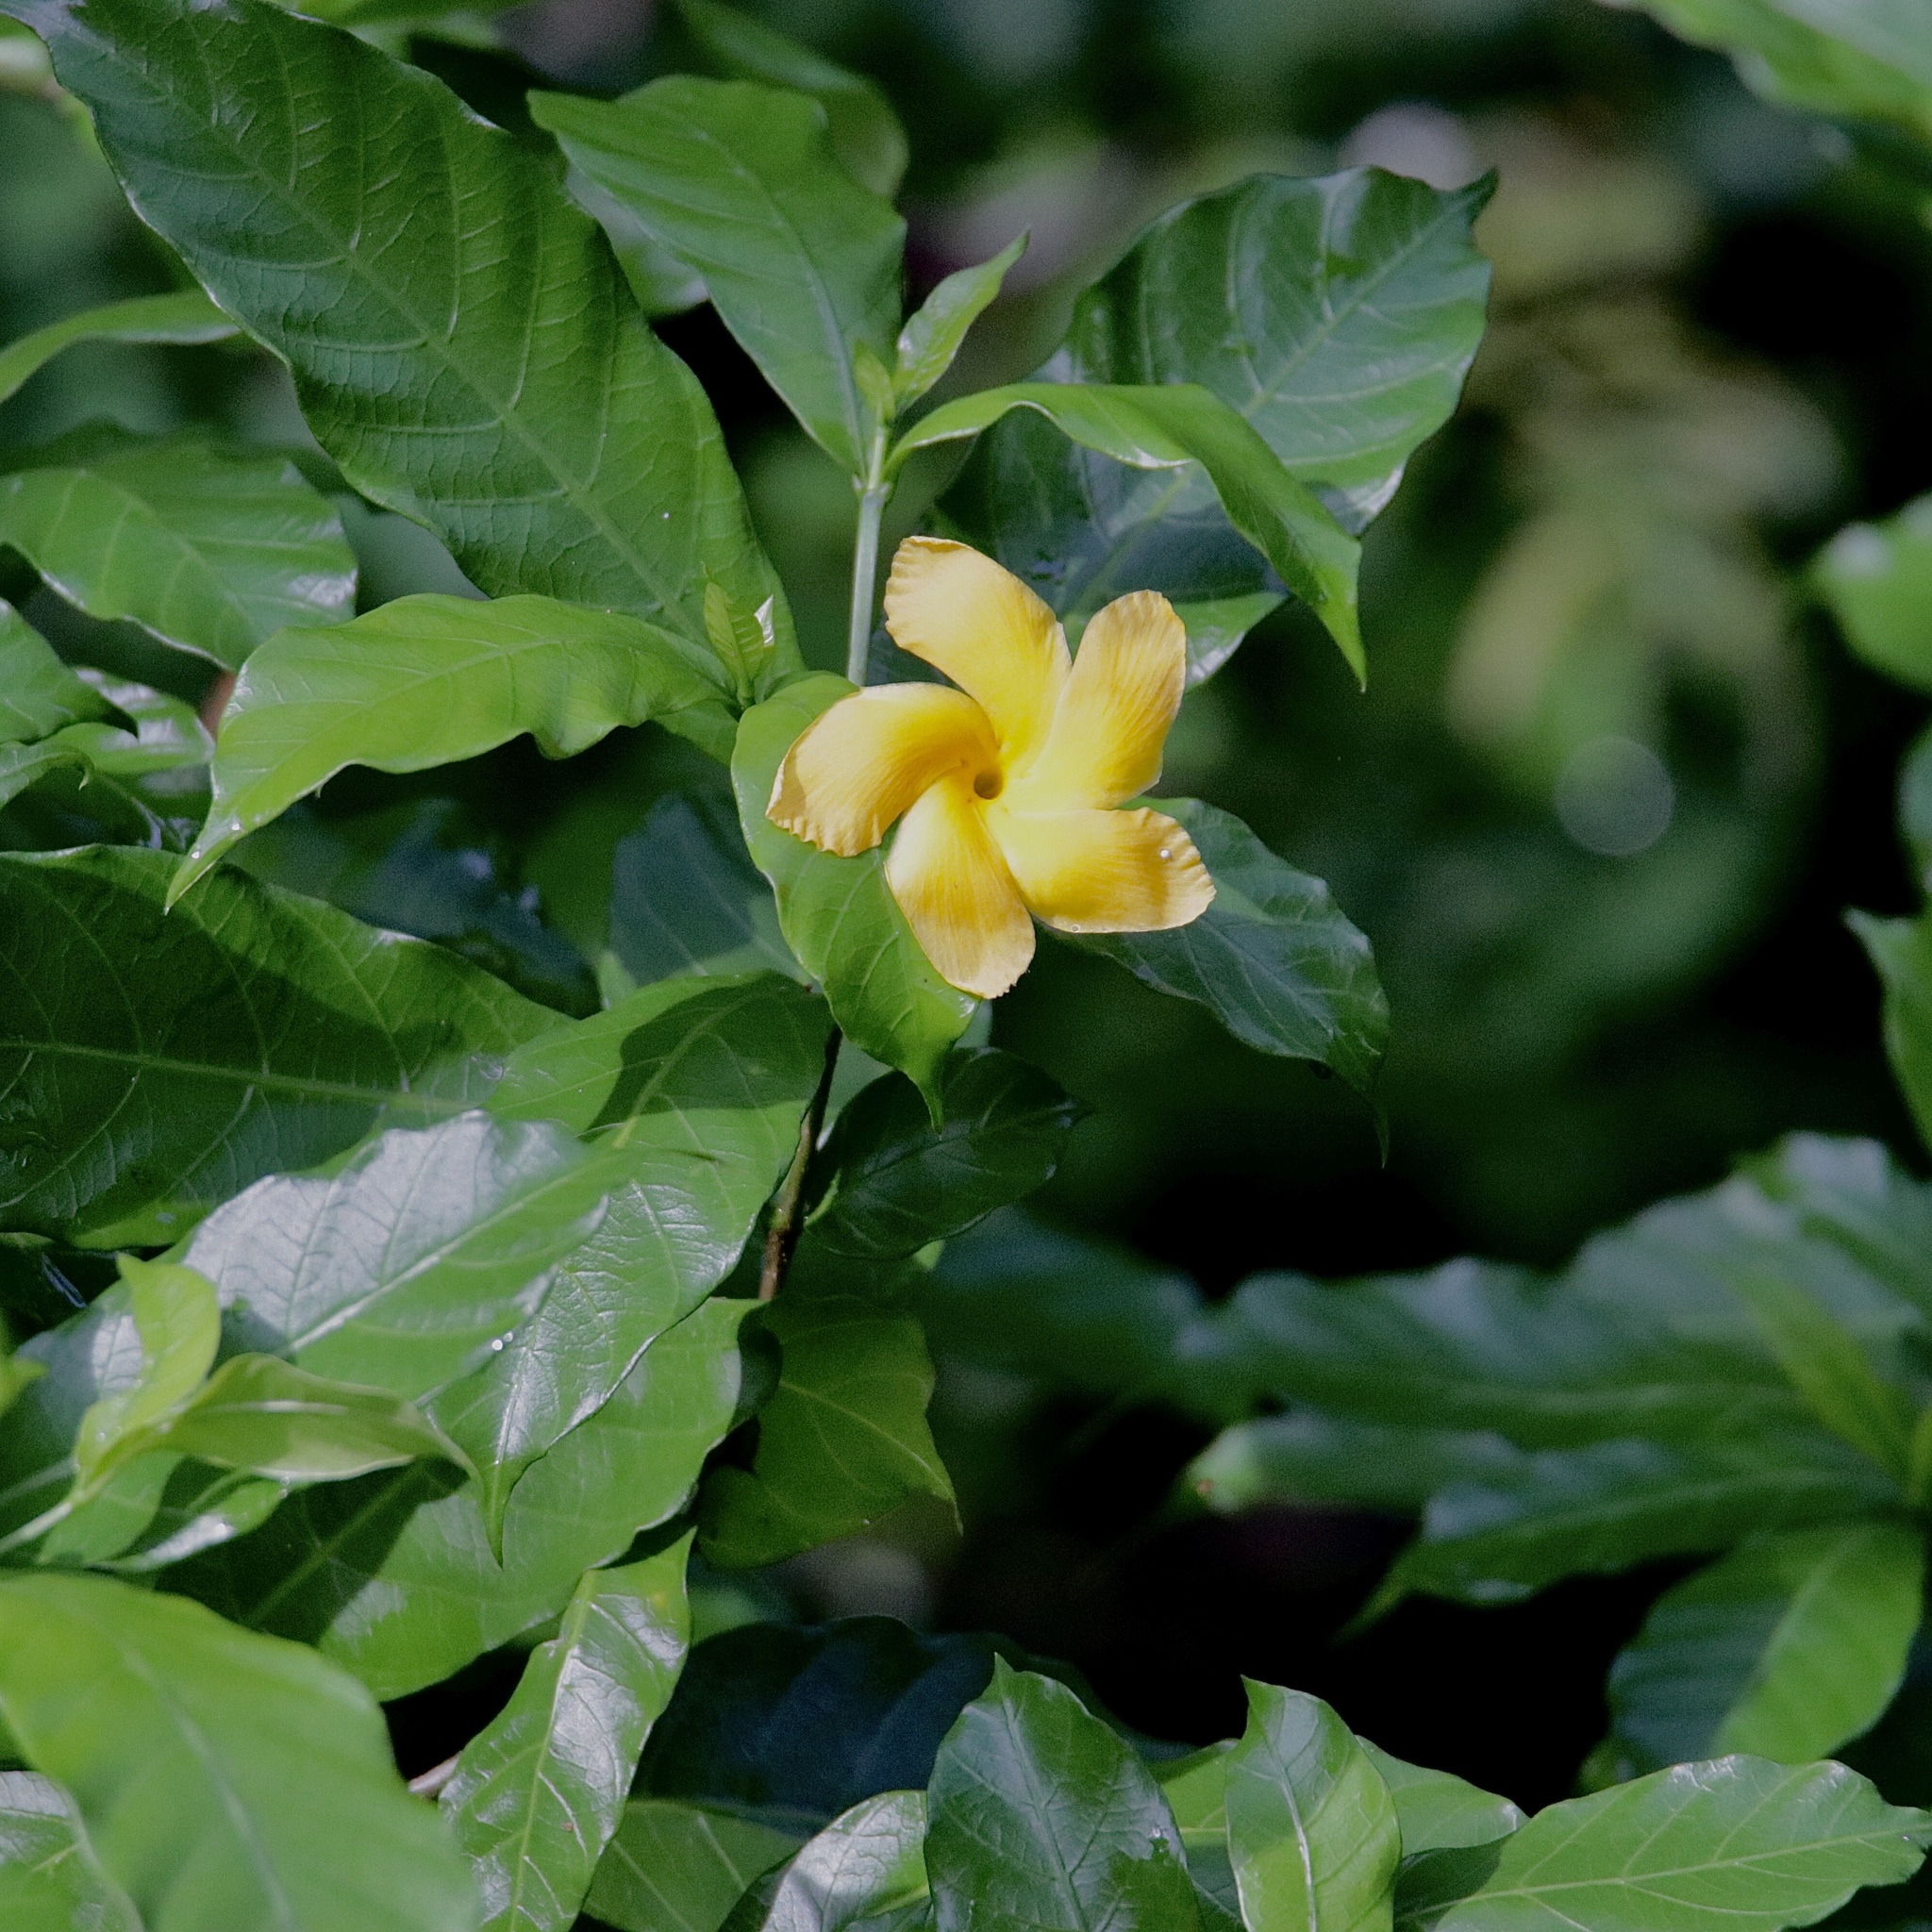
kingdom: Plantae
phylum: Tracheophyta
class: Magnoliopsida
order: Gentianales
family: Apocynaceae
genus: Tabernaemontana
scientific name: Tabernaemontana grandiflora
